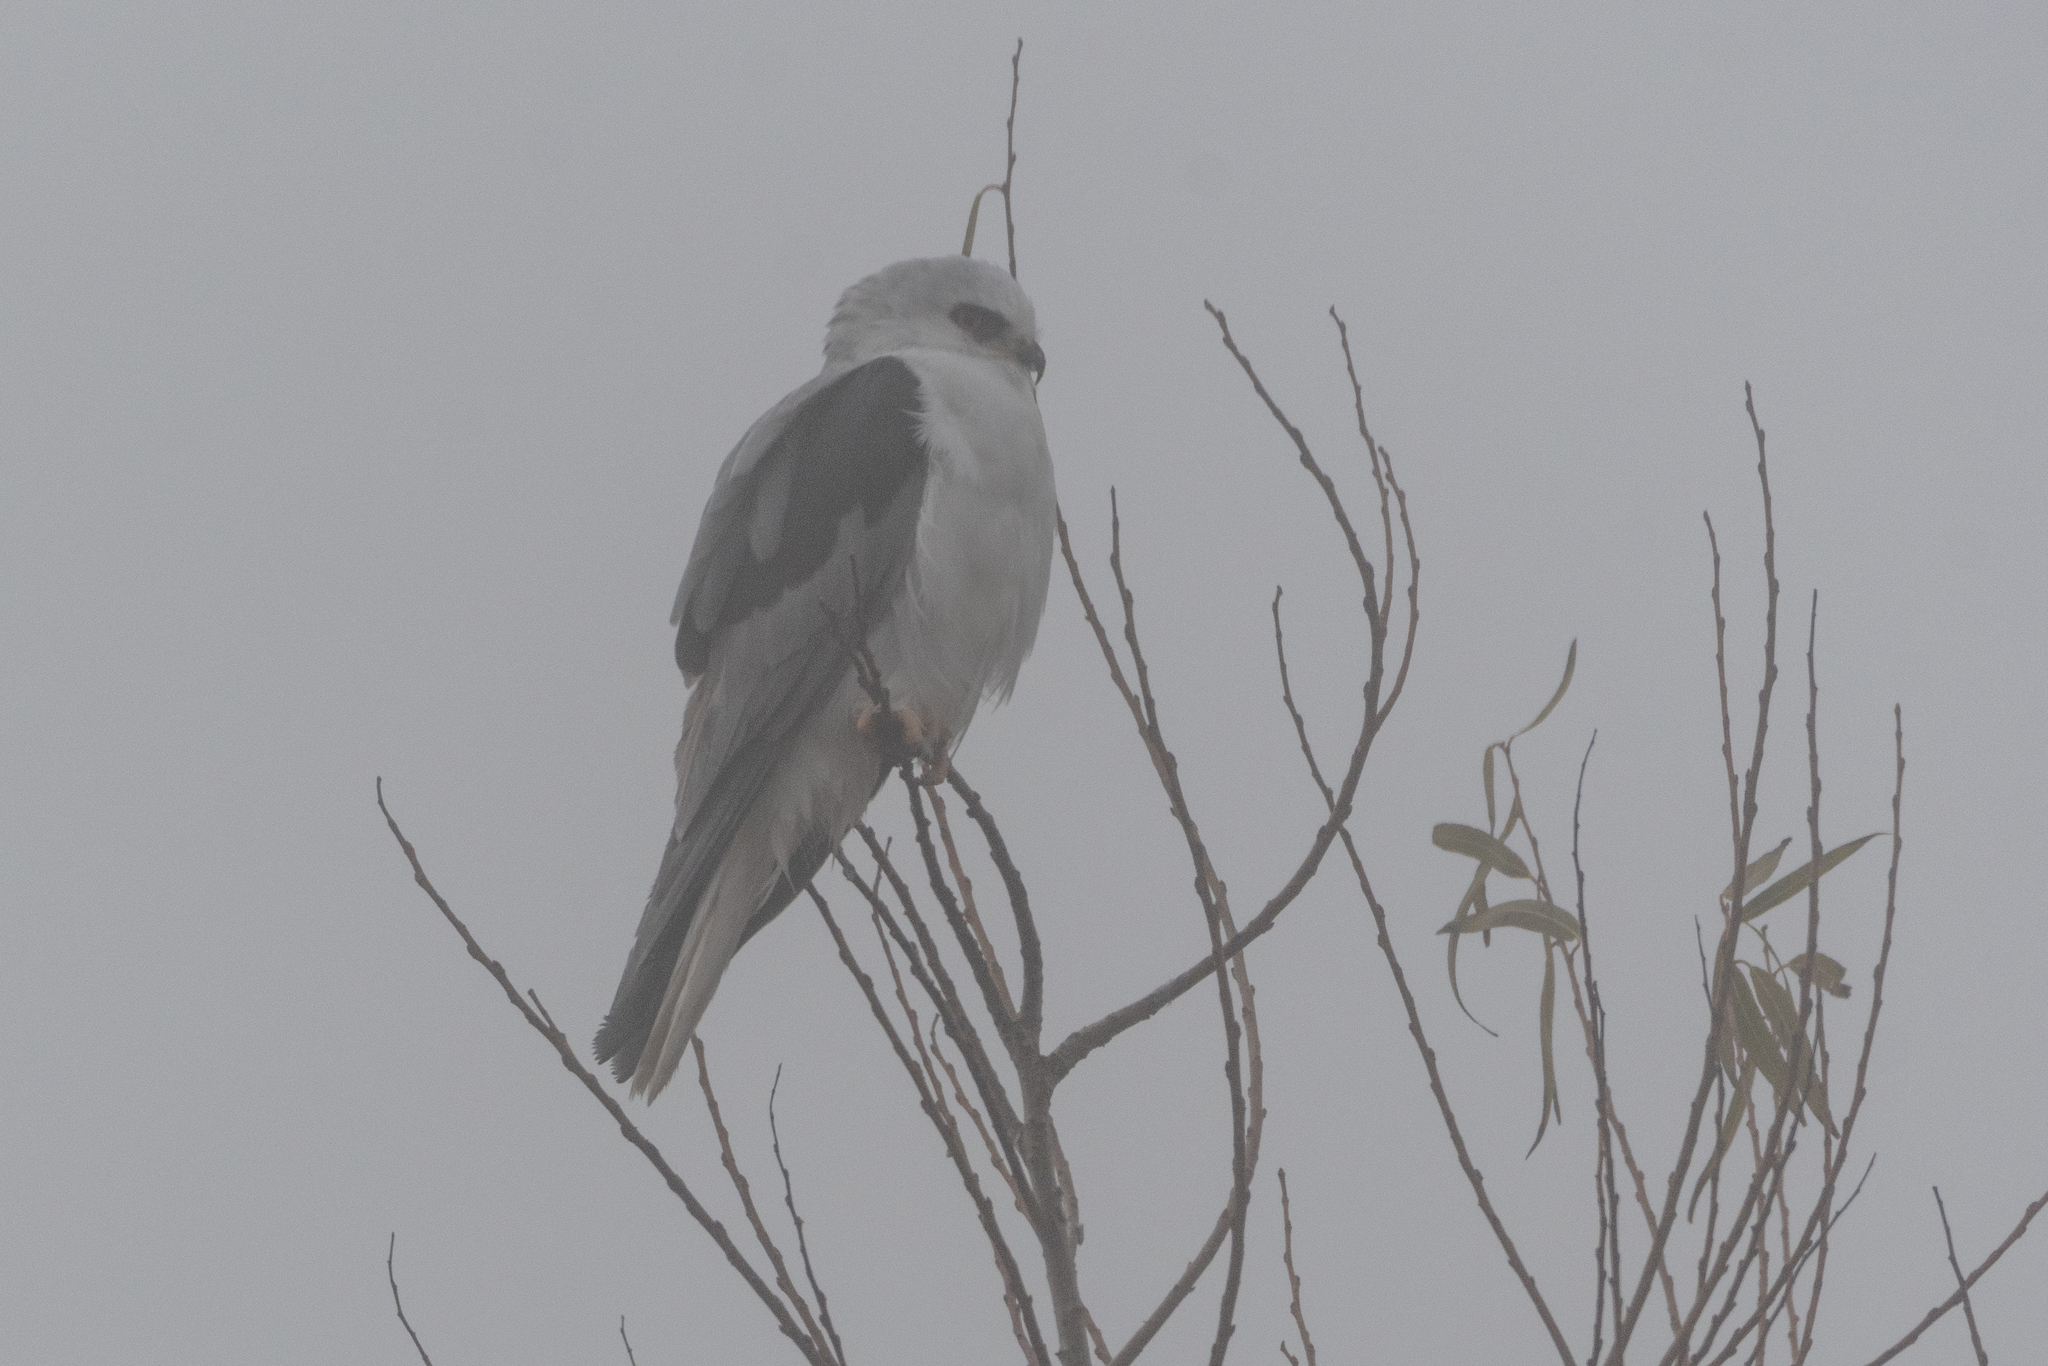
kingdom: Animalia
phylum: Chordata
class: Aves
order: Accipitriformes
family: Accipitridae
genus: Elanus
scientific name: Elanus leucurus
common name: White-tailed kite
